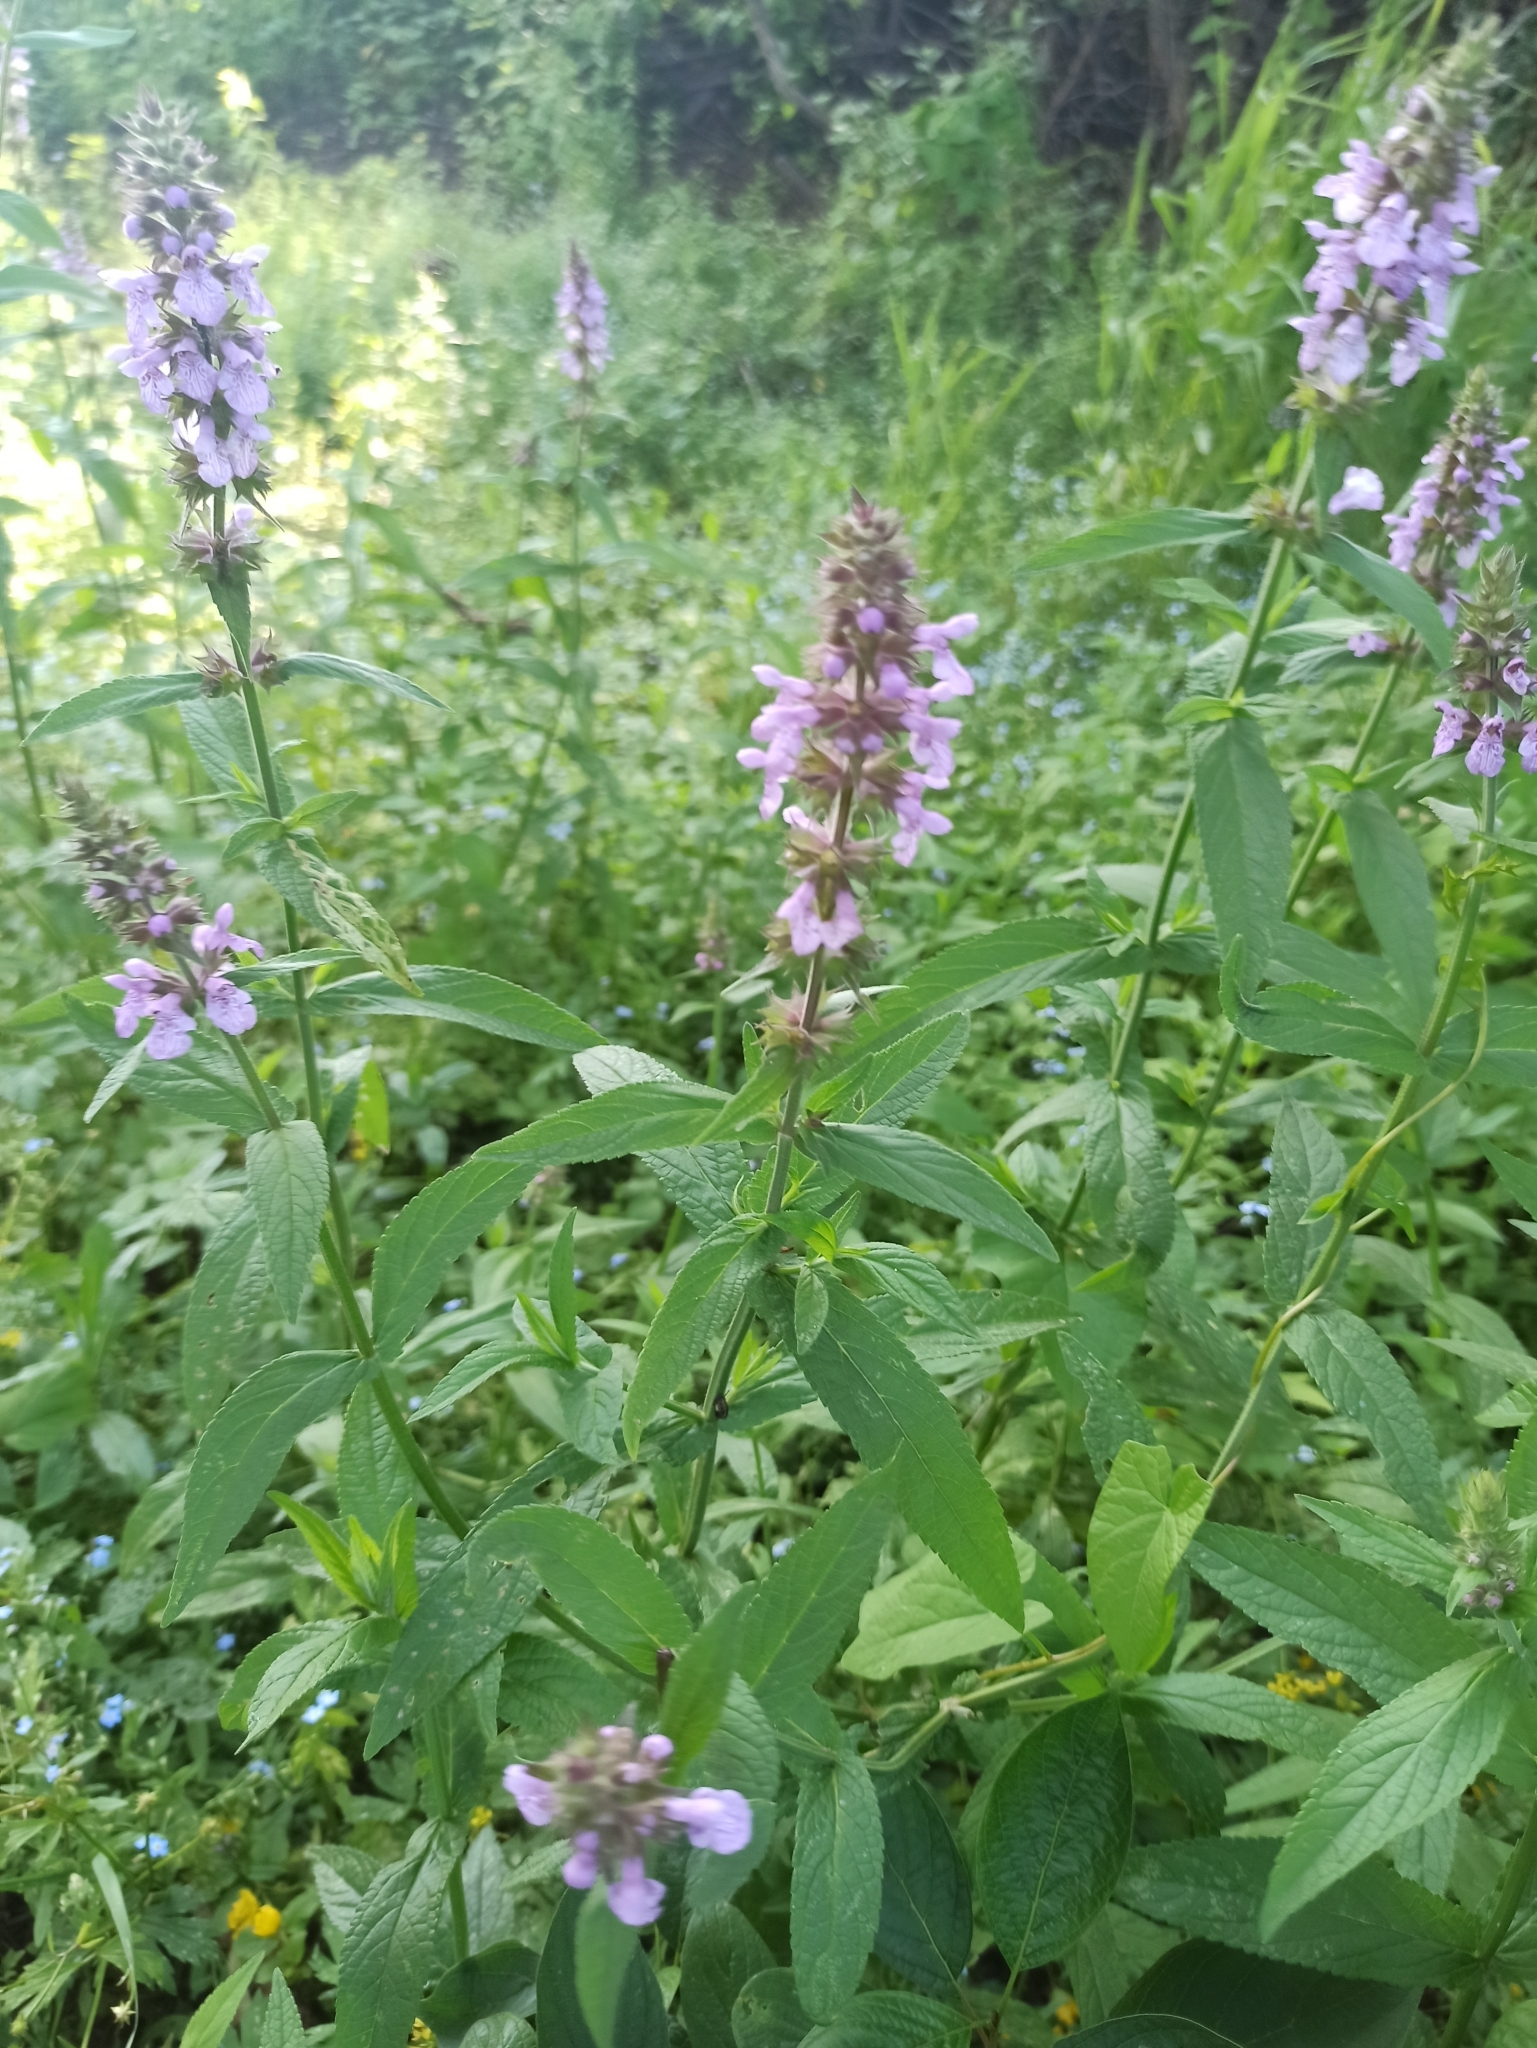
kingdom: Plantae
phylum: Tracheophyta
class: Magnoliopsida
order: Lamiales
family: Lamiaceae
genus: Stachys
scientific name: Stachys palustris
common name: Marsh woundwort
